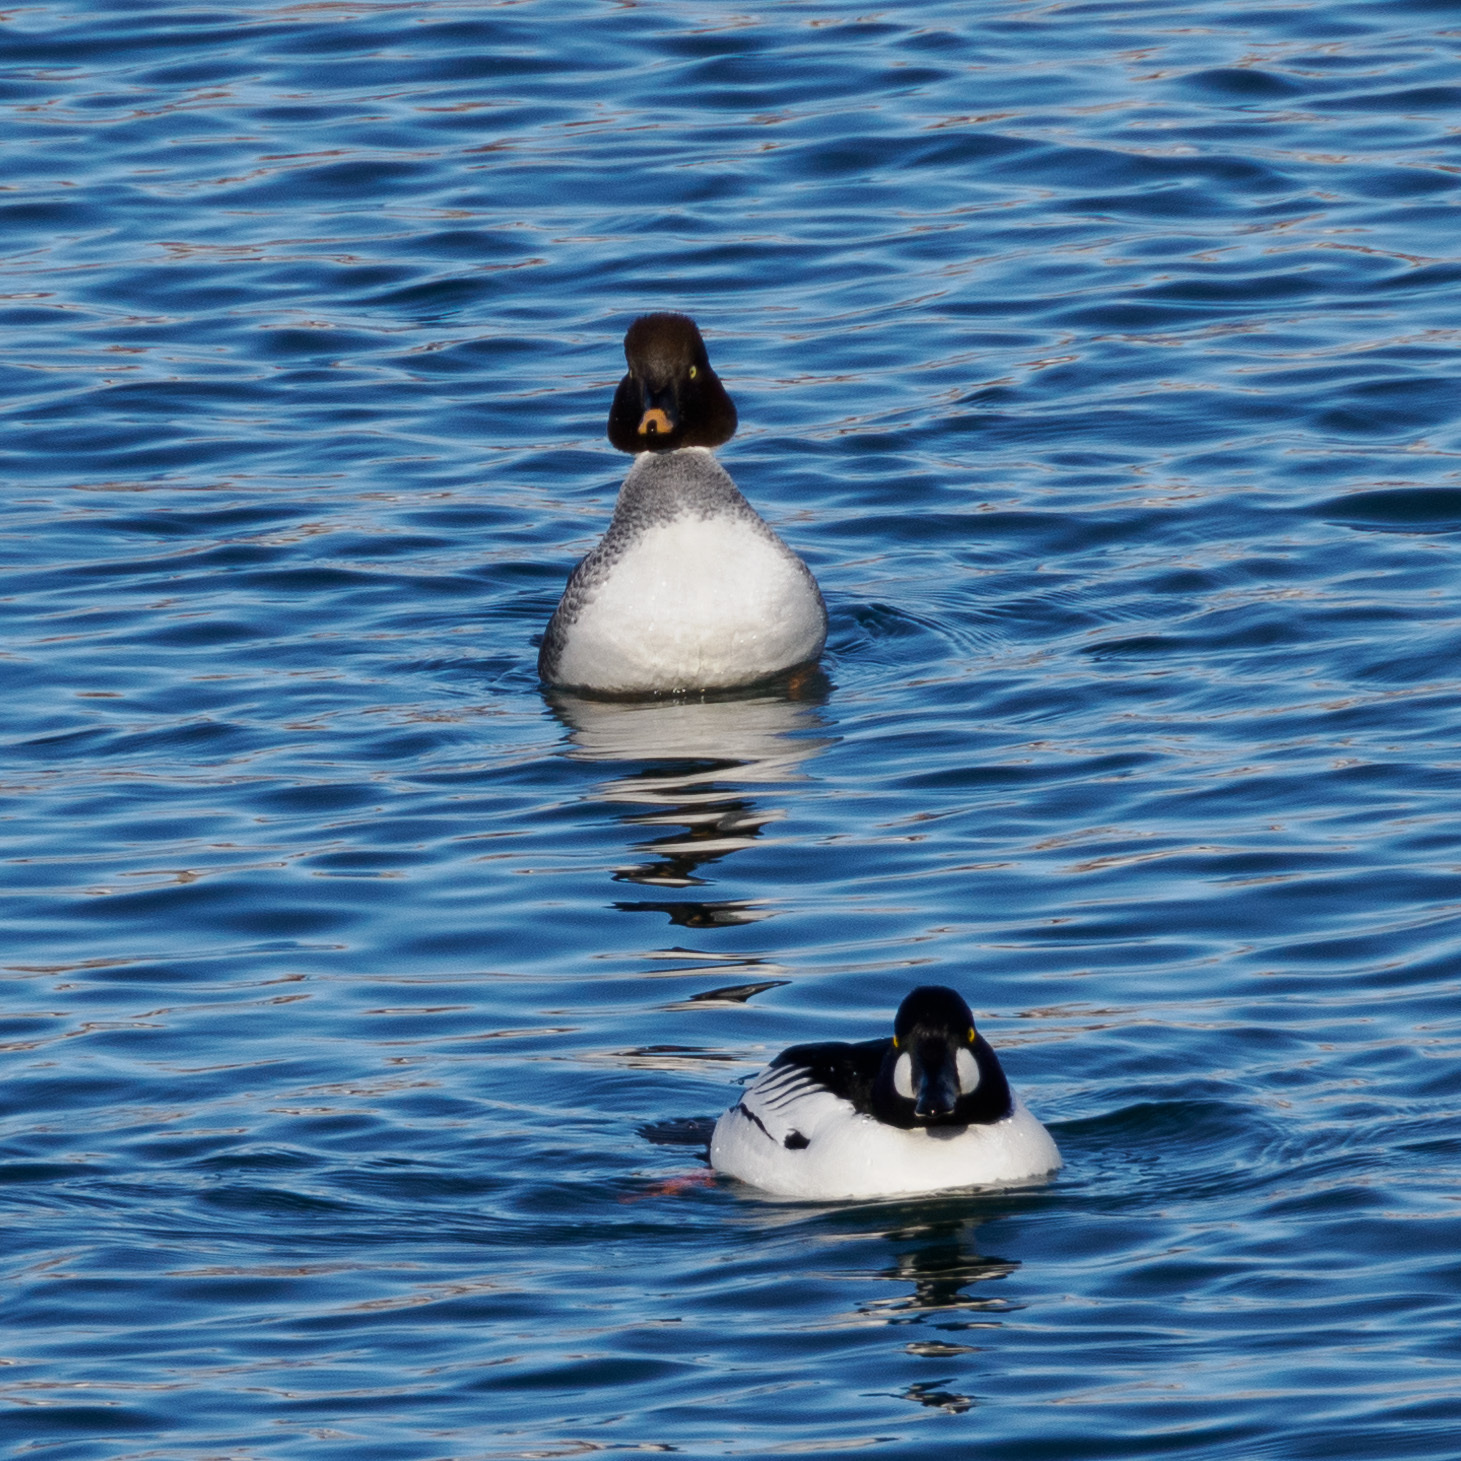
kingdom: Animalia
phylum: Chordata
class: Aves
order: Anseriformes
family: Anatidae
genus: Bucephala
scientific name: Bucephala clangula
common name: Common goldeneye
